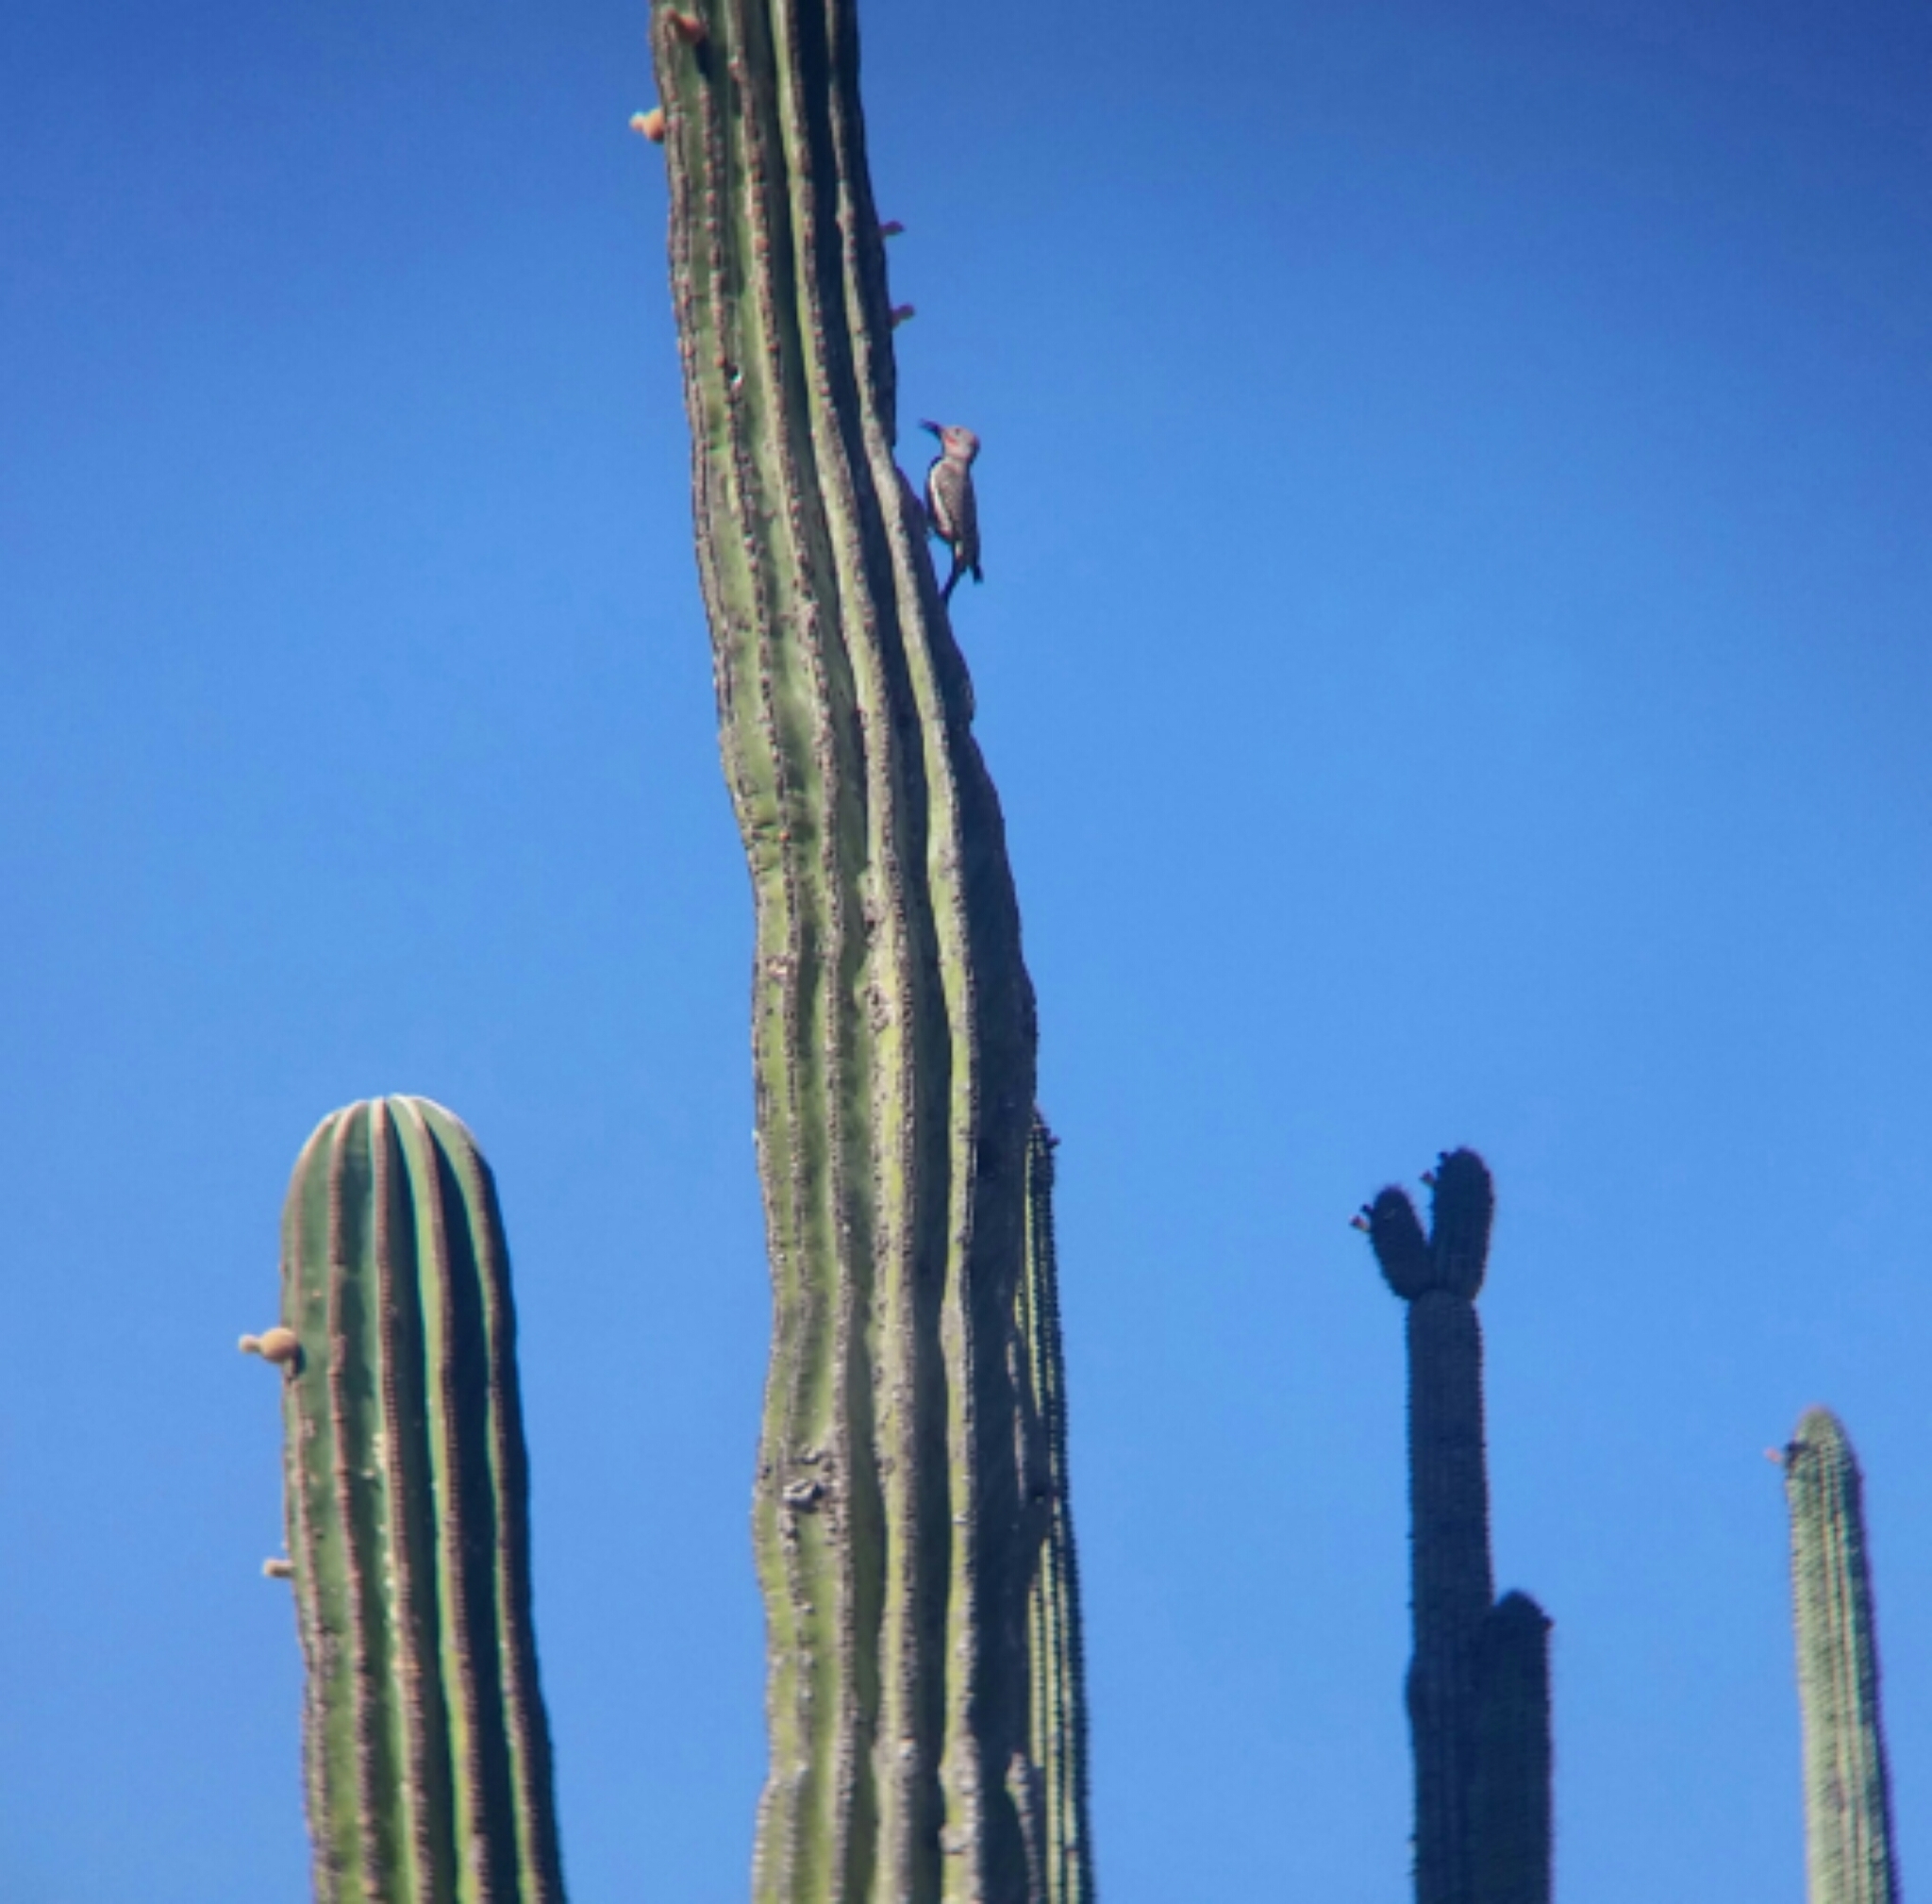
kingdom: Animalia
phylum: Chordata
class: Aves
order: Piciformes
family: Picidae
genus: Colaptes
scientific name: Colaptes chrysoides
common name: Gilded flicker
